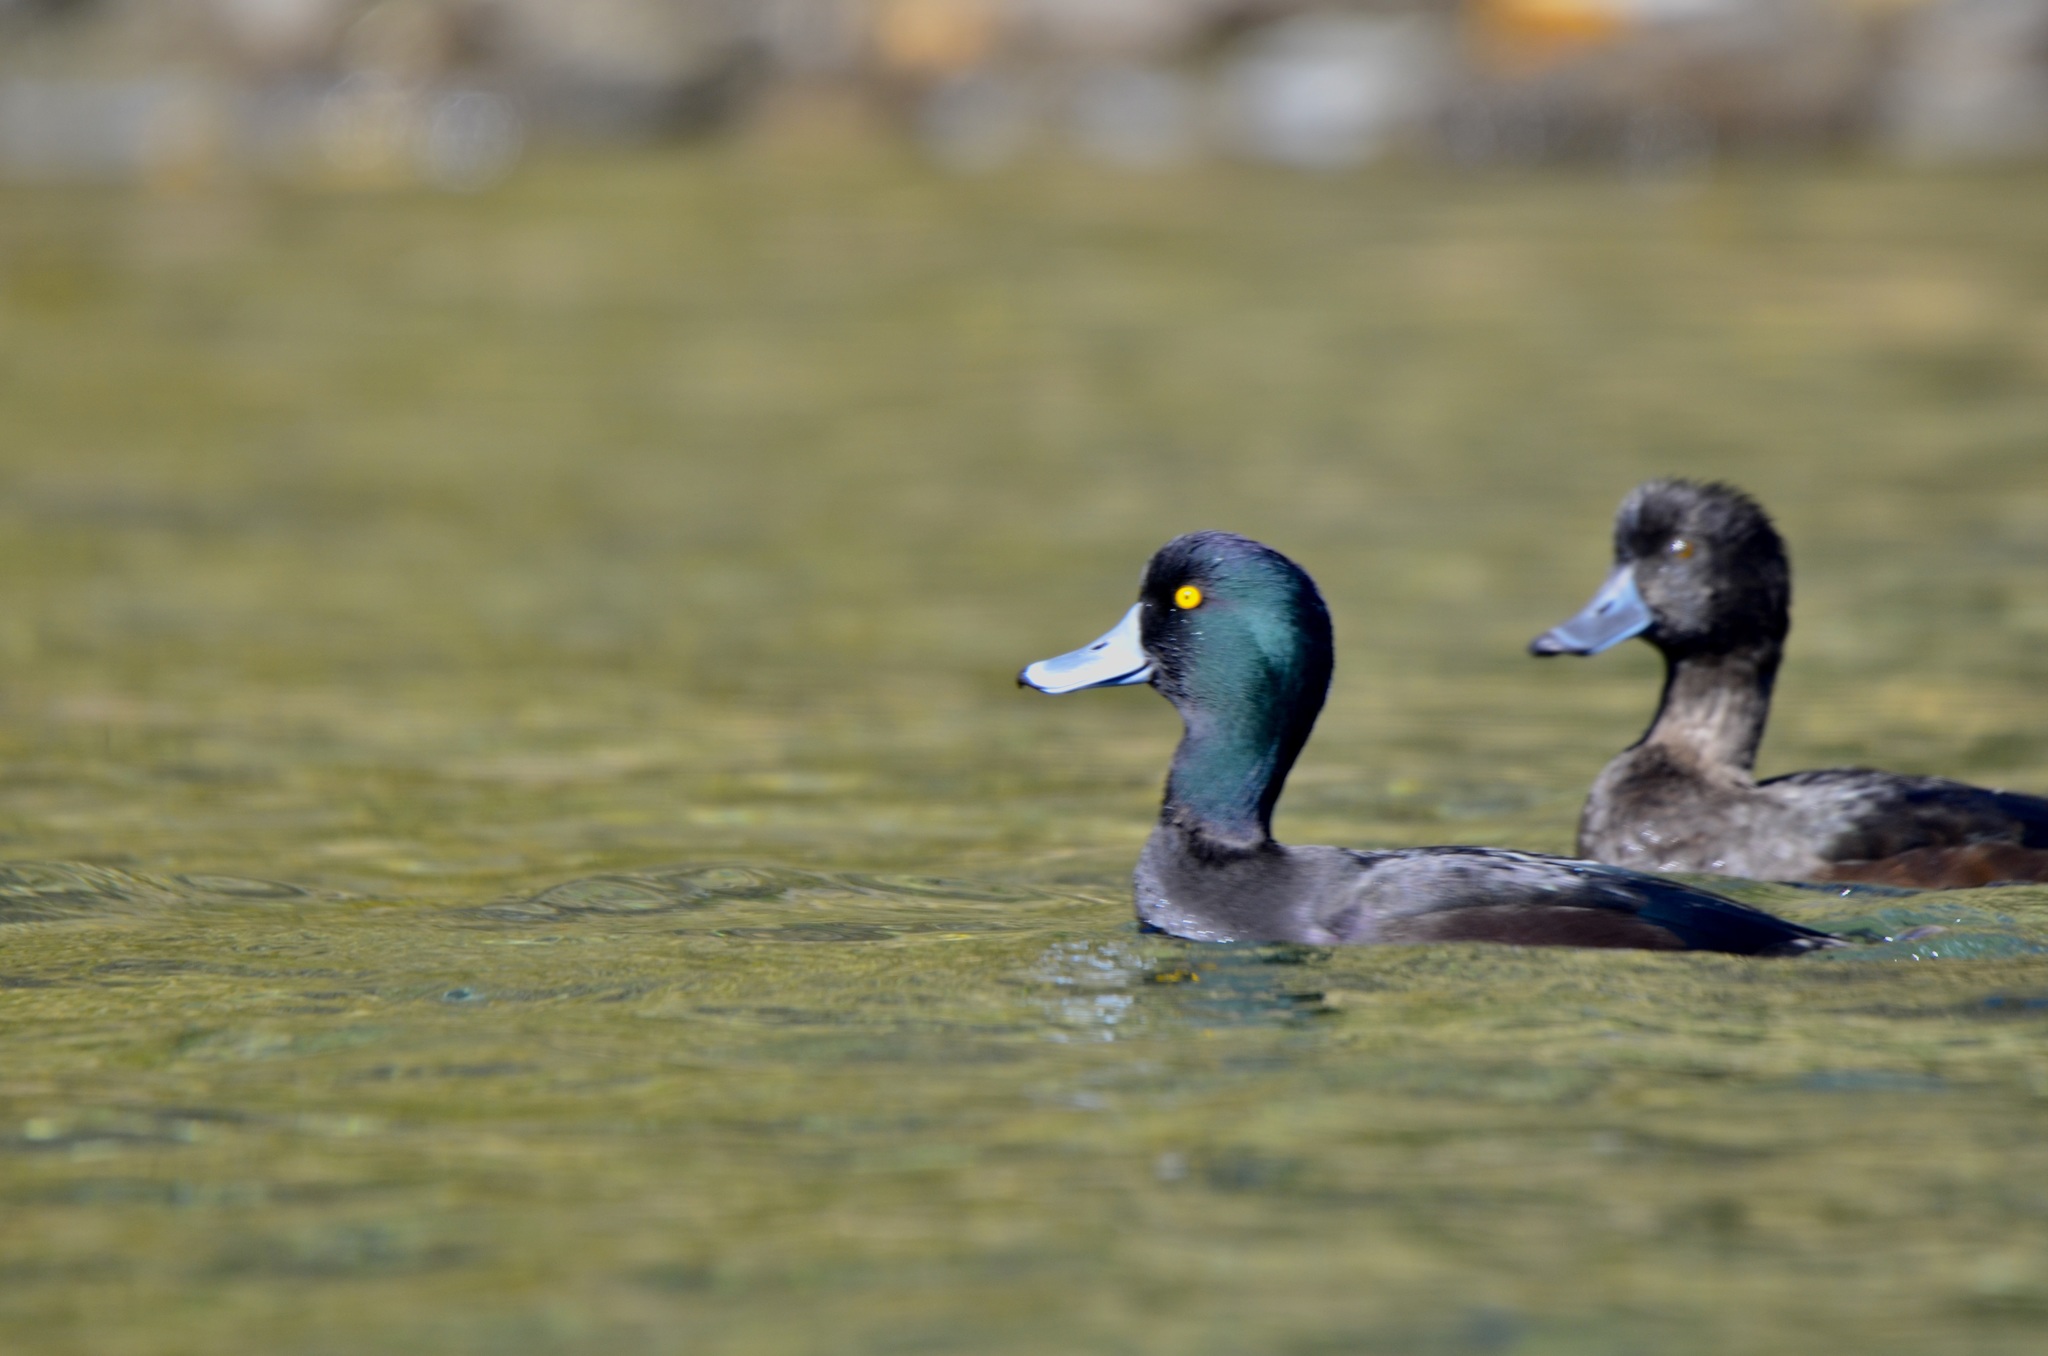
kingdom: Animalia
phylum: Chordata
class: Aves
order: Anseriformes
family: Anatidae
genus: Aythya
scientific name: Aythya novaeseelandiae
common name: New zealand scaup
